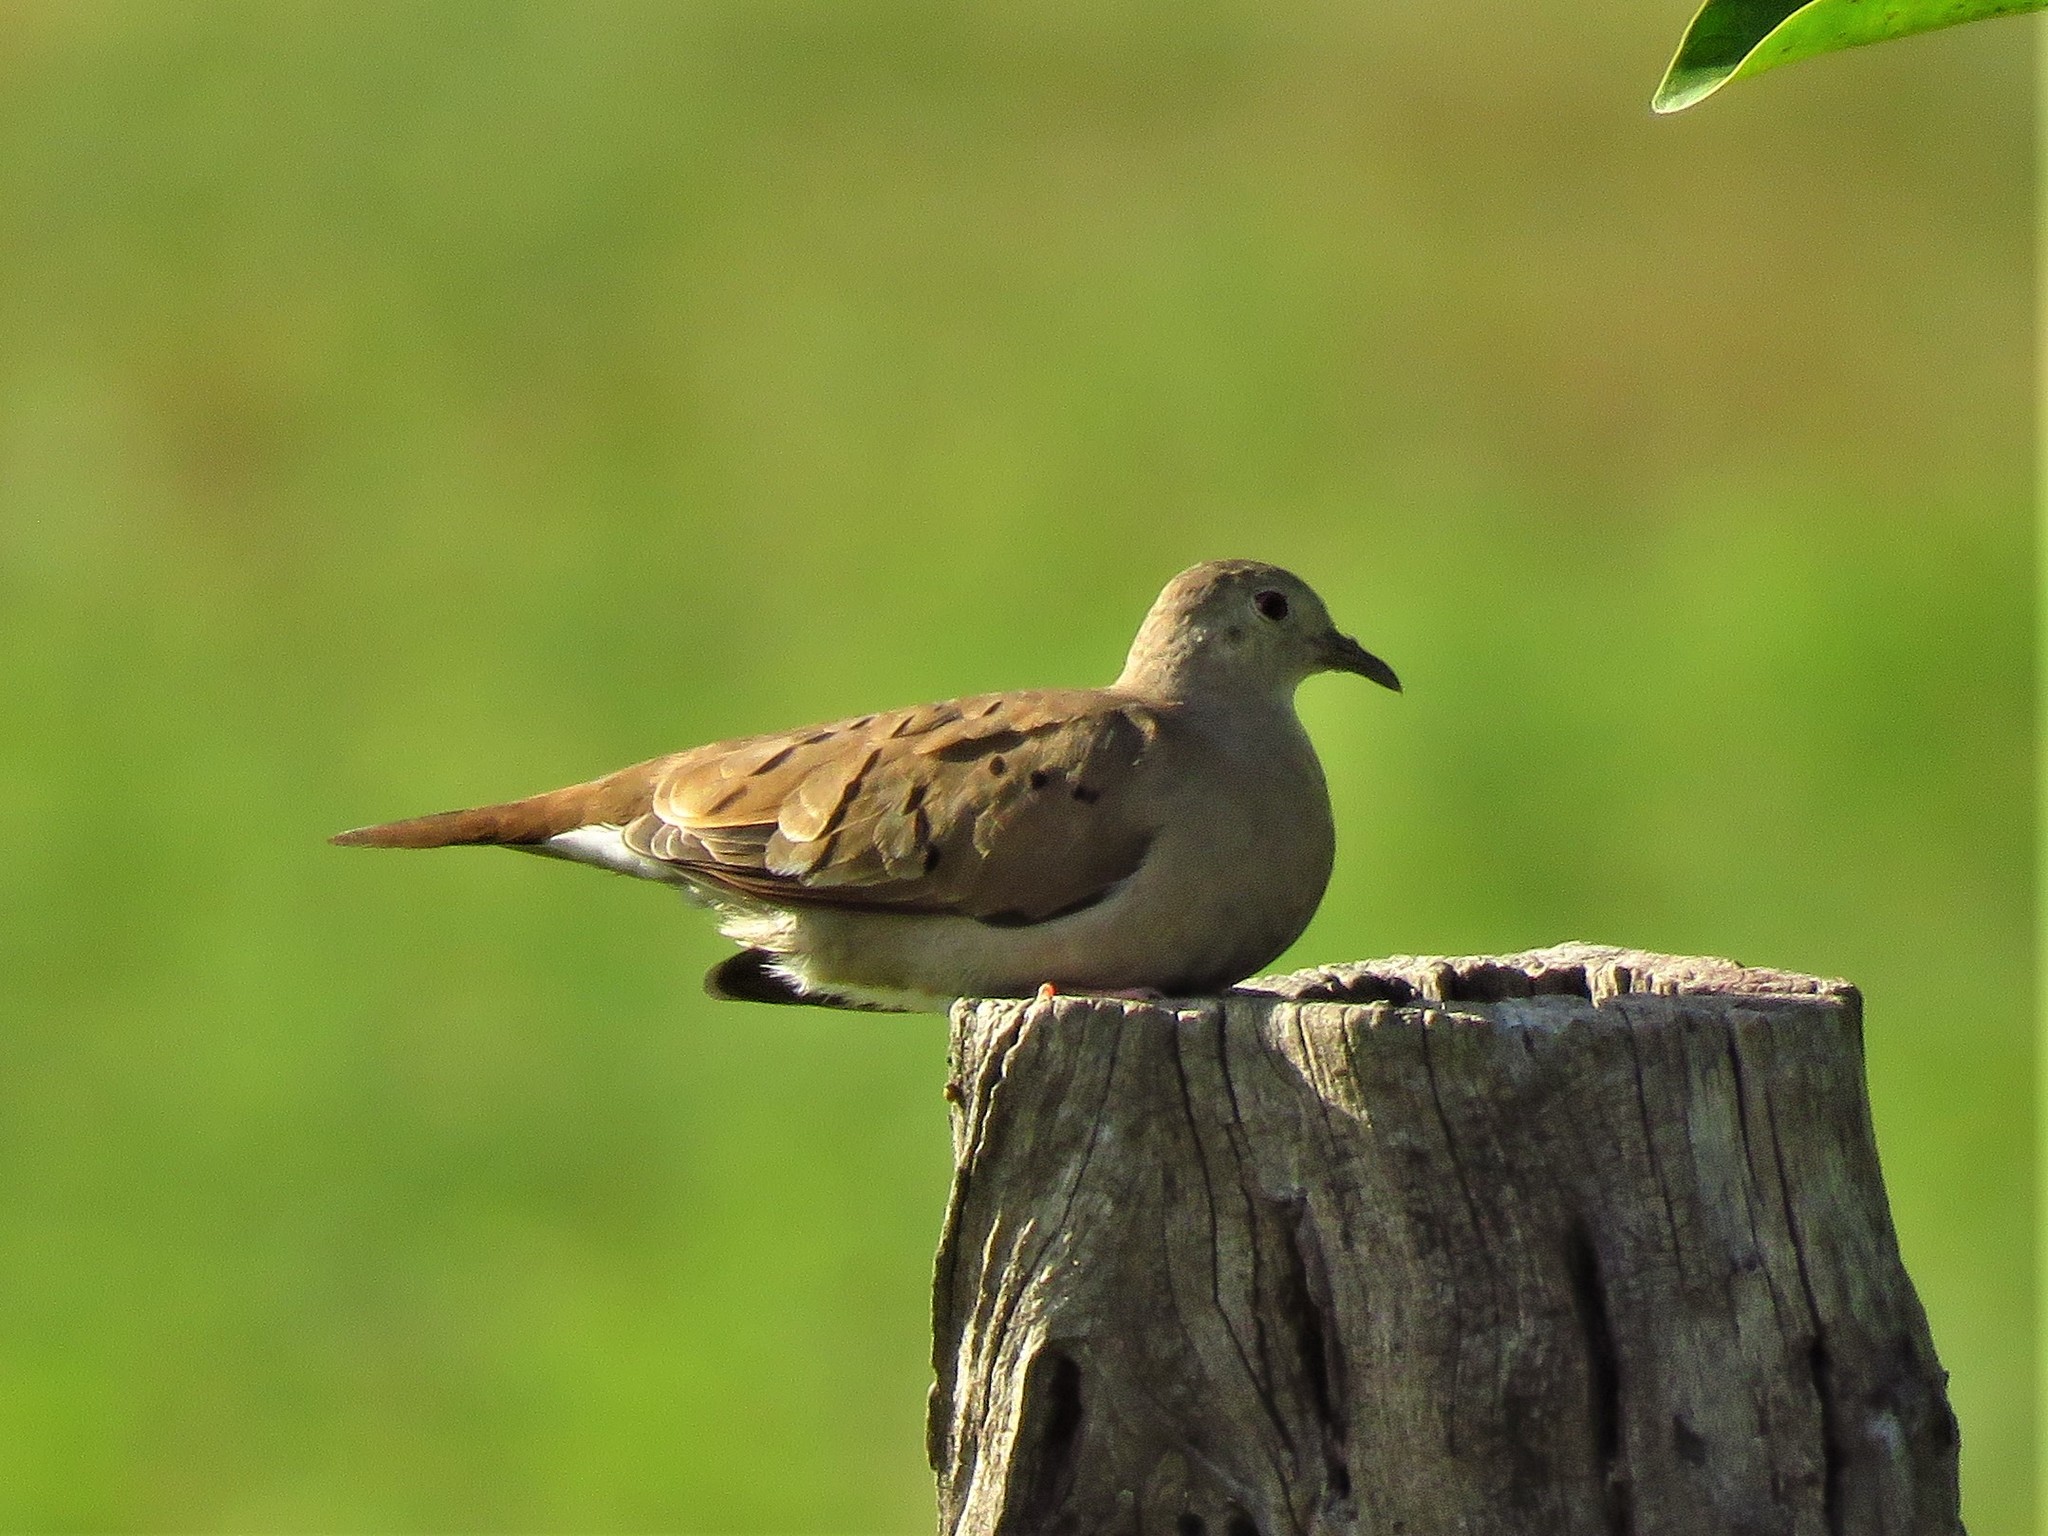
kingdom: Animalia
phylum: Chordata
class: Aves
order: Columbiformes
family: Columbidae
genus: Columbina
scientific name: Columbina talpacoti
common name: Ruddy ground dove
